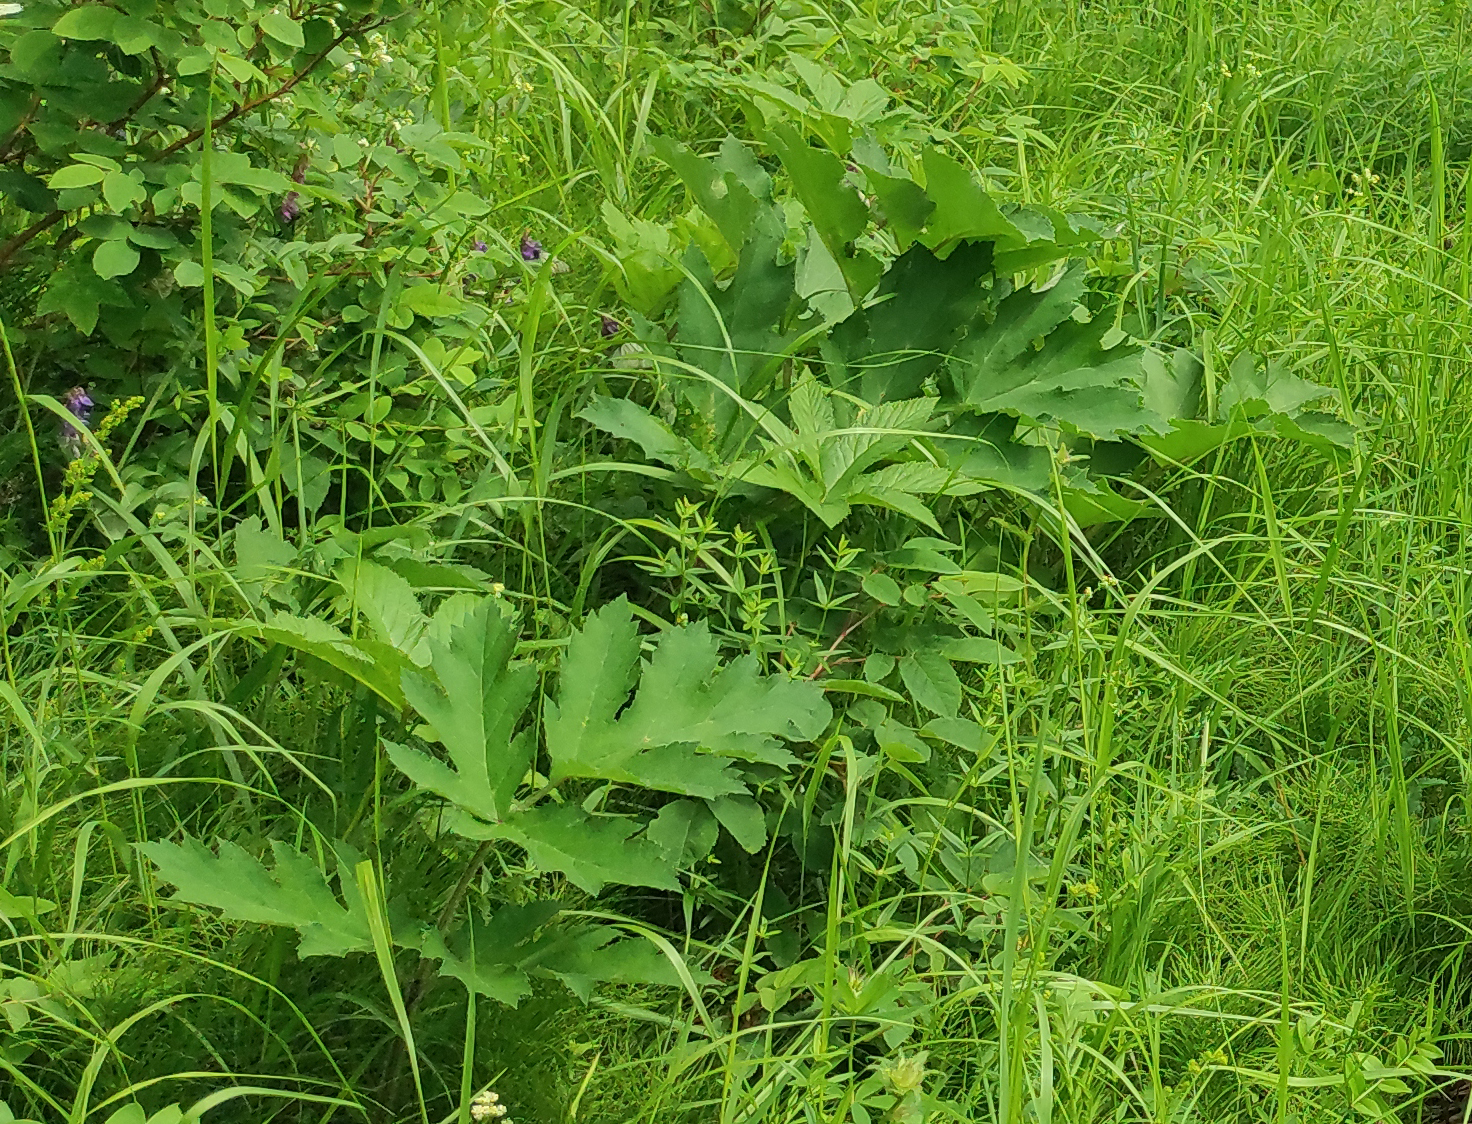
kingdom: Plantae
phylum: Tracheophyta
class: Magnoliopsida
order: Apiales
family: Apiaceae
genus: Heracleum
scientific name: Heracleum dissectum
